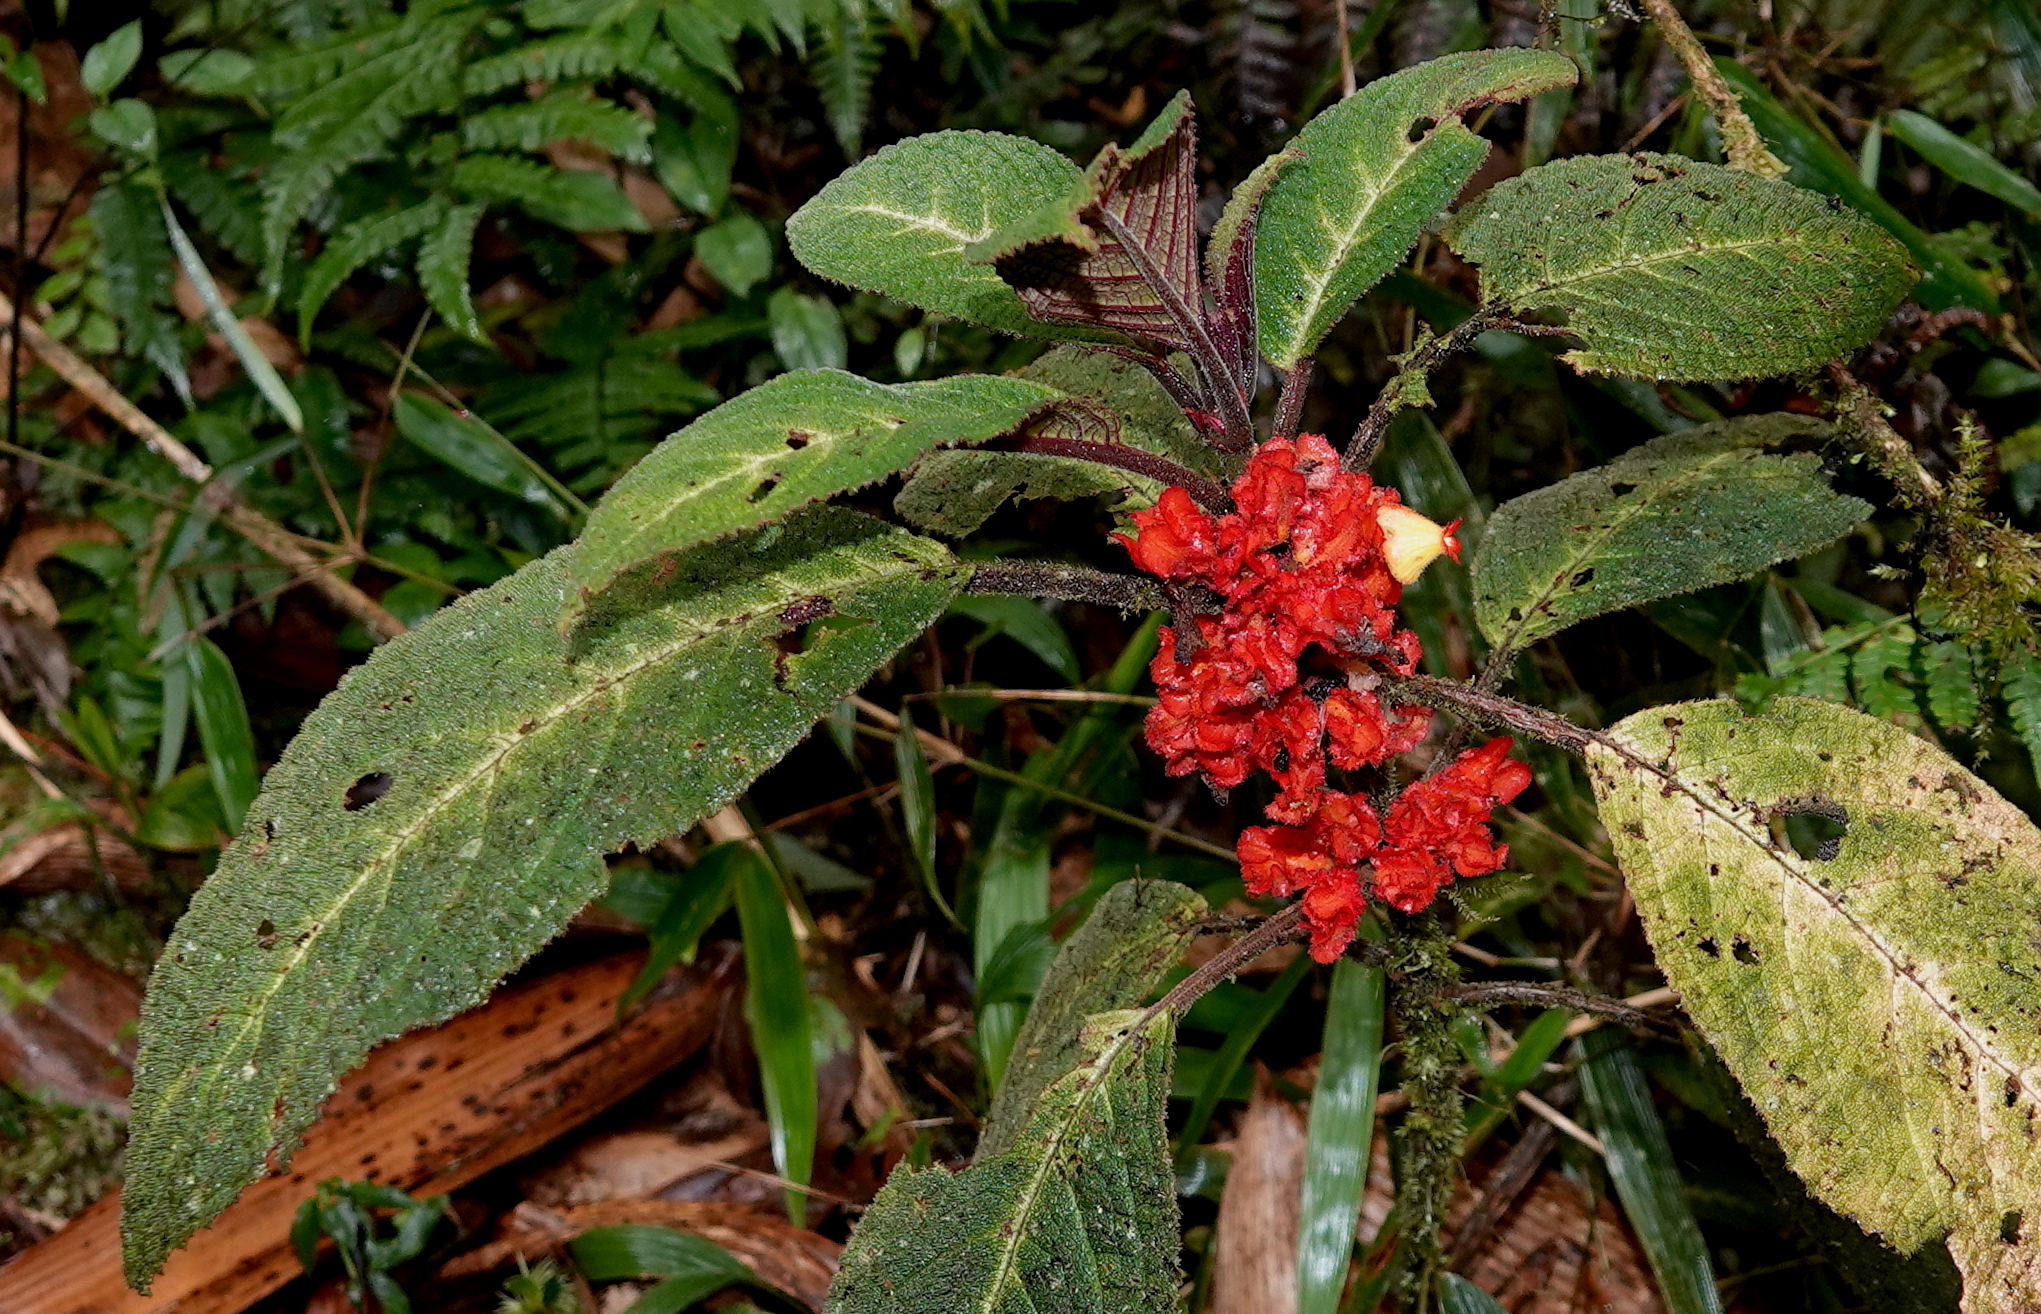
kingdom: Plantae
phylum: Tracheophyta
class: Magnoliopsida
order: Lamiales
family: Gesneriaceae
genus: Drymonia
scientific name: Drymonia teuscheri
